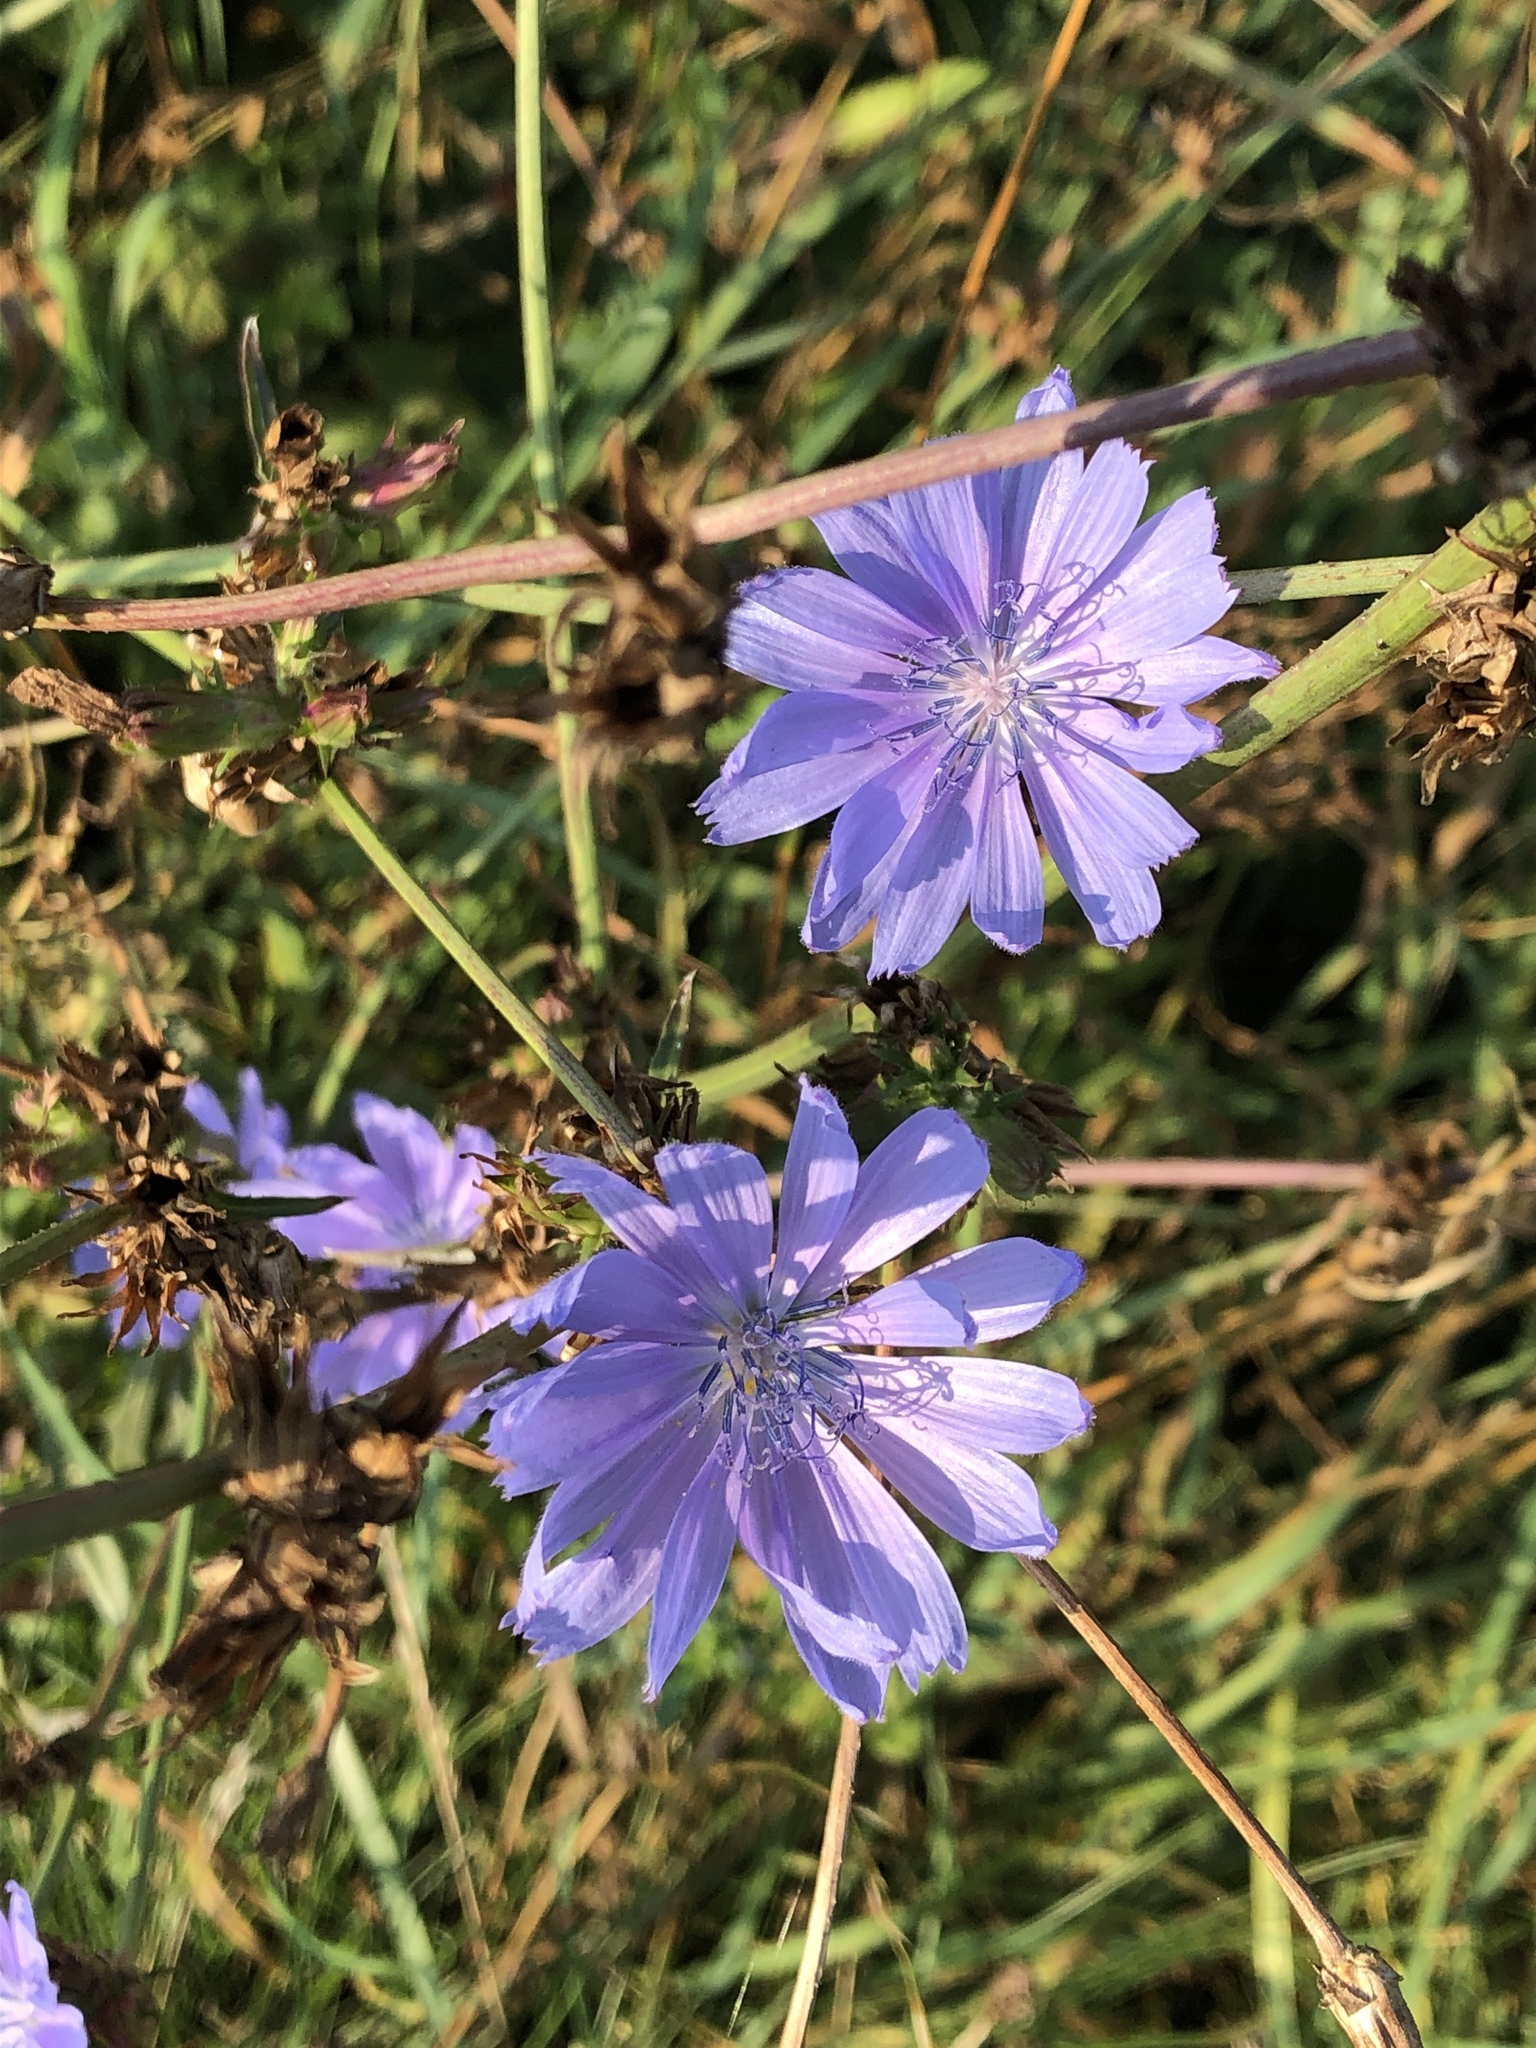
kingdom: Plantae
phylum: Tracheophyta
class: Magnoliopsida
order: Asterales
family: Asteraceae
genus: Cichorium
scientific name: Cichorium intybus
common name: Chicory
